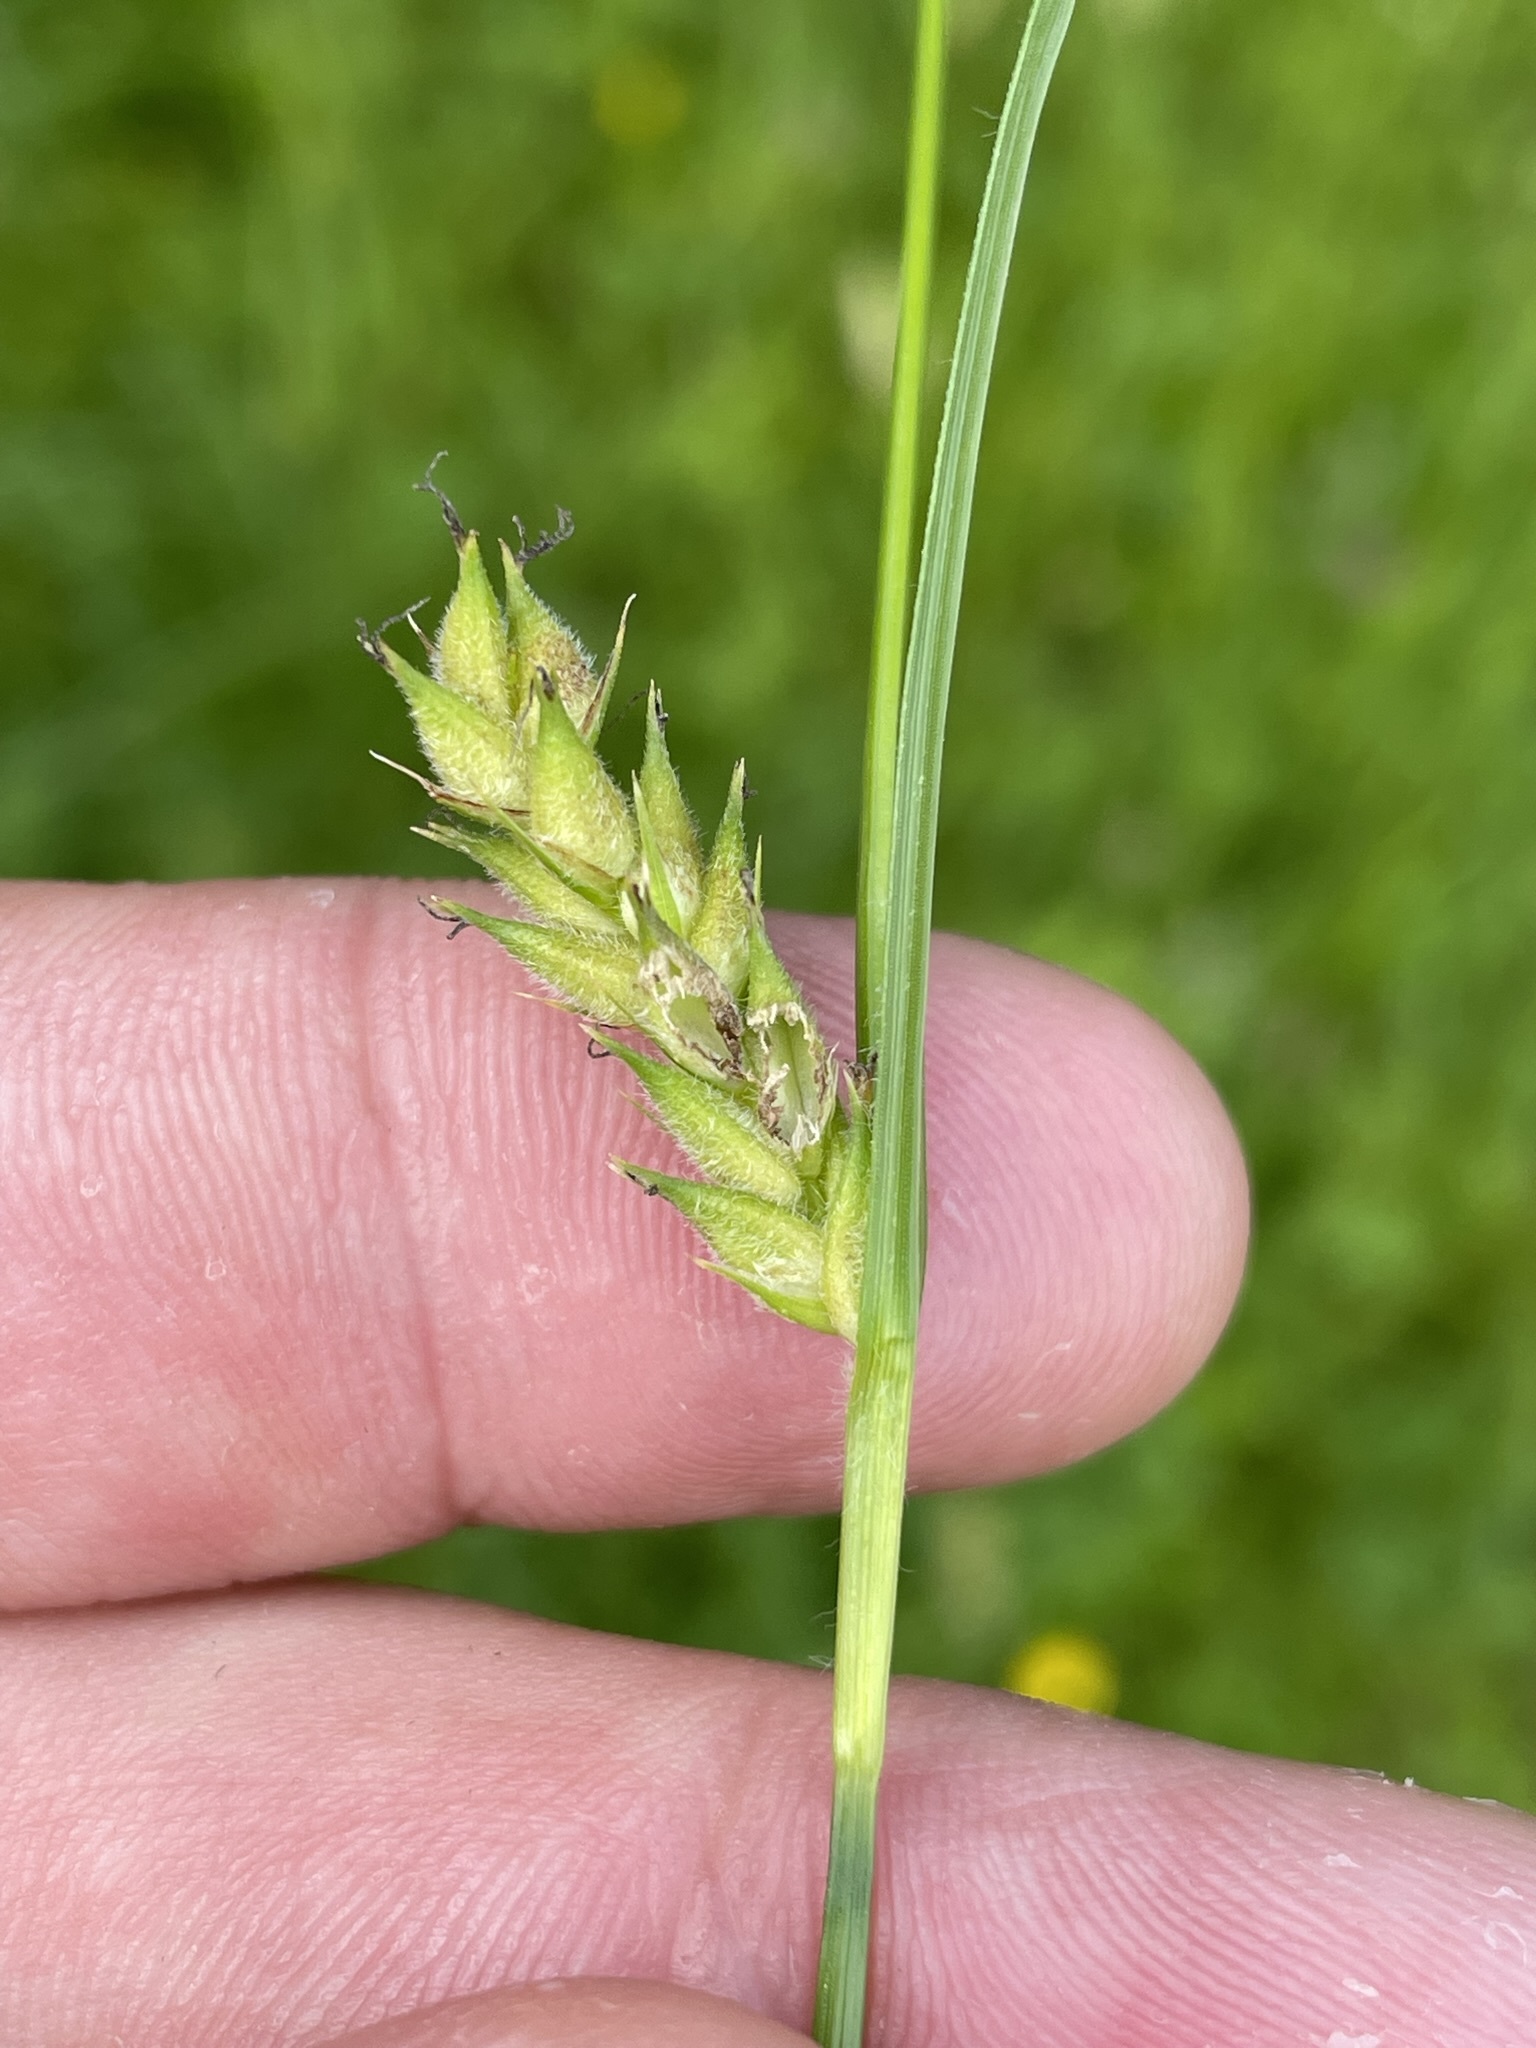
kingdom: Plantae
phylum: Tracheophyta
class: Liliopsida
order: Poales
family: Cyperaceae
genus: Carex
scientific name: Carex hirta
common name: Hairy sedge
